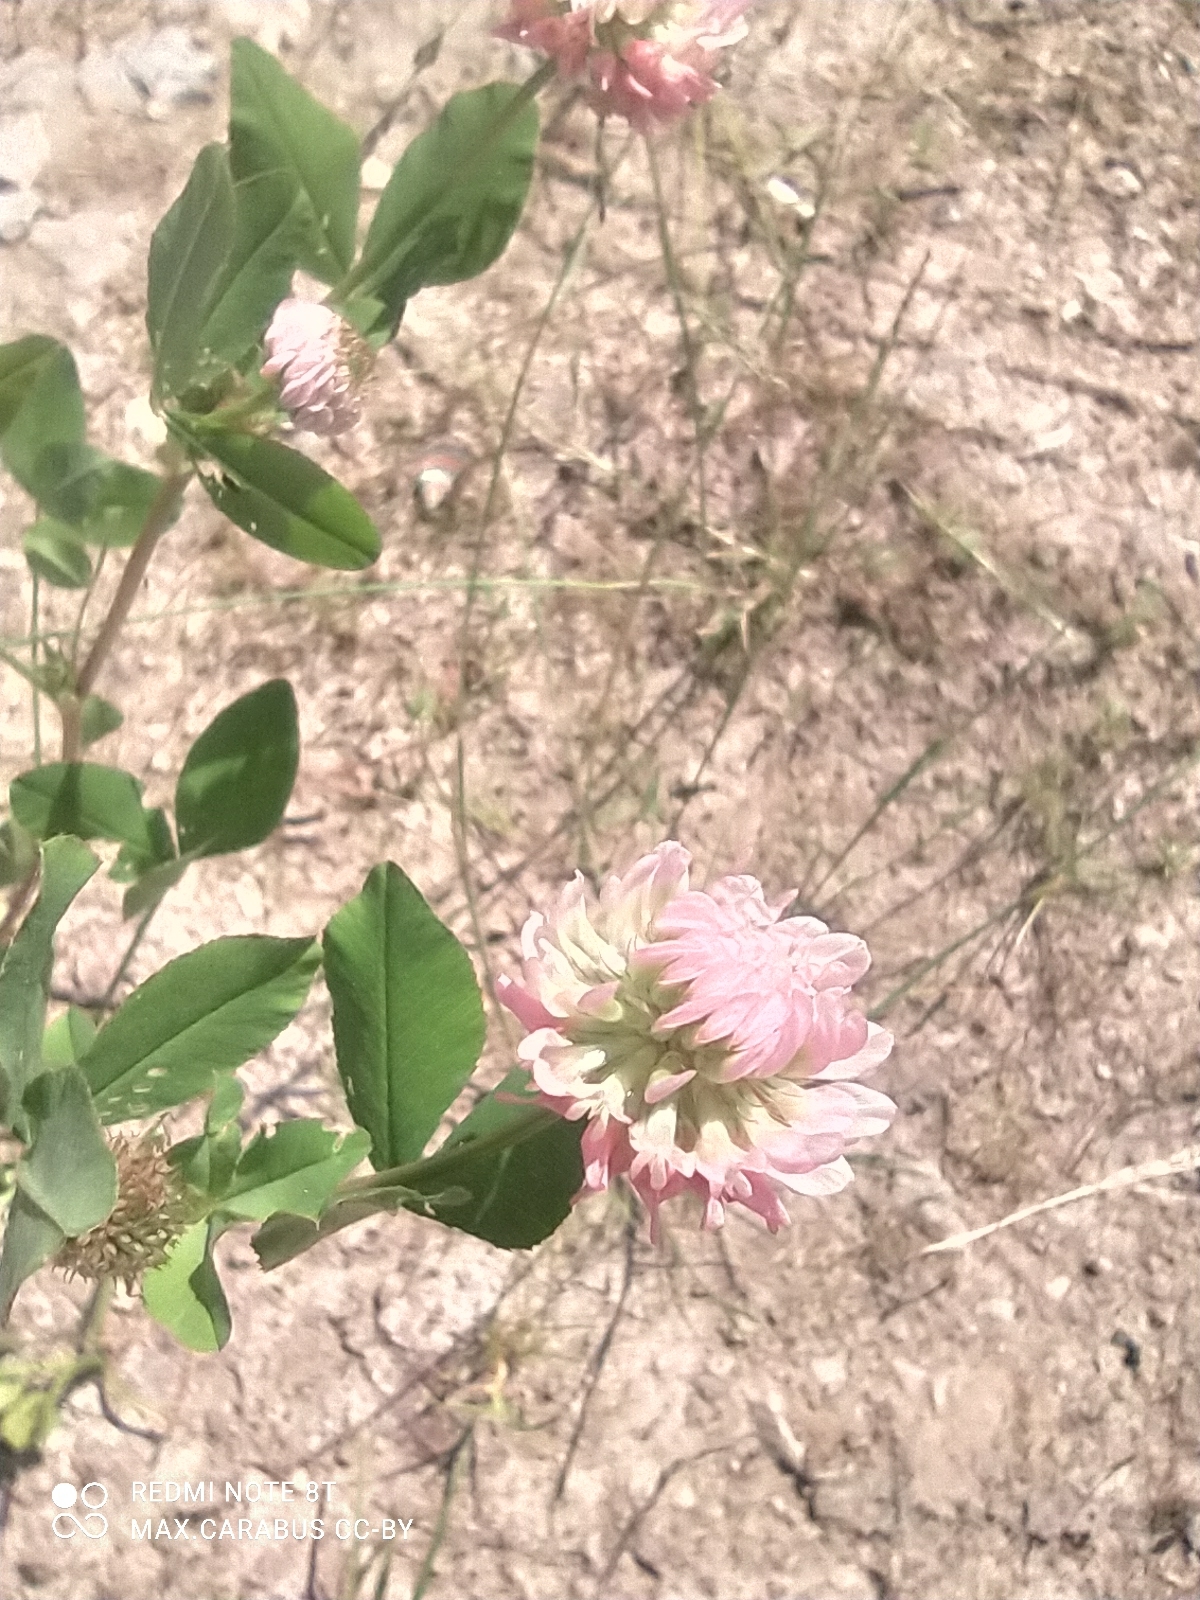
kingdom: Plantae
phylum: Tracheophyta
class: Magnoliopsida
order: Fabales
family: Fabaceae
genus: Trifolium
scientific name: Trifolium hybridum
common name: Alsike clover
